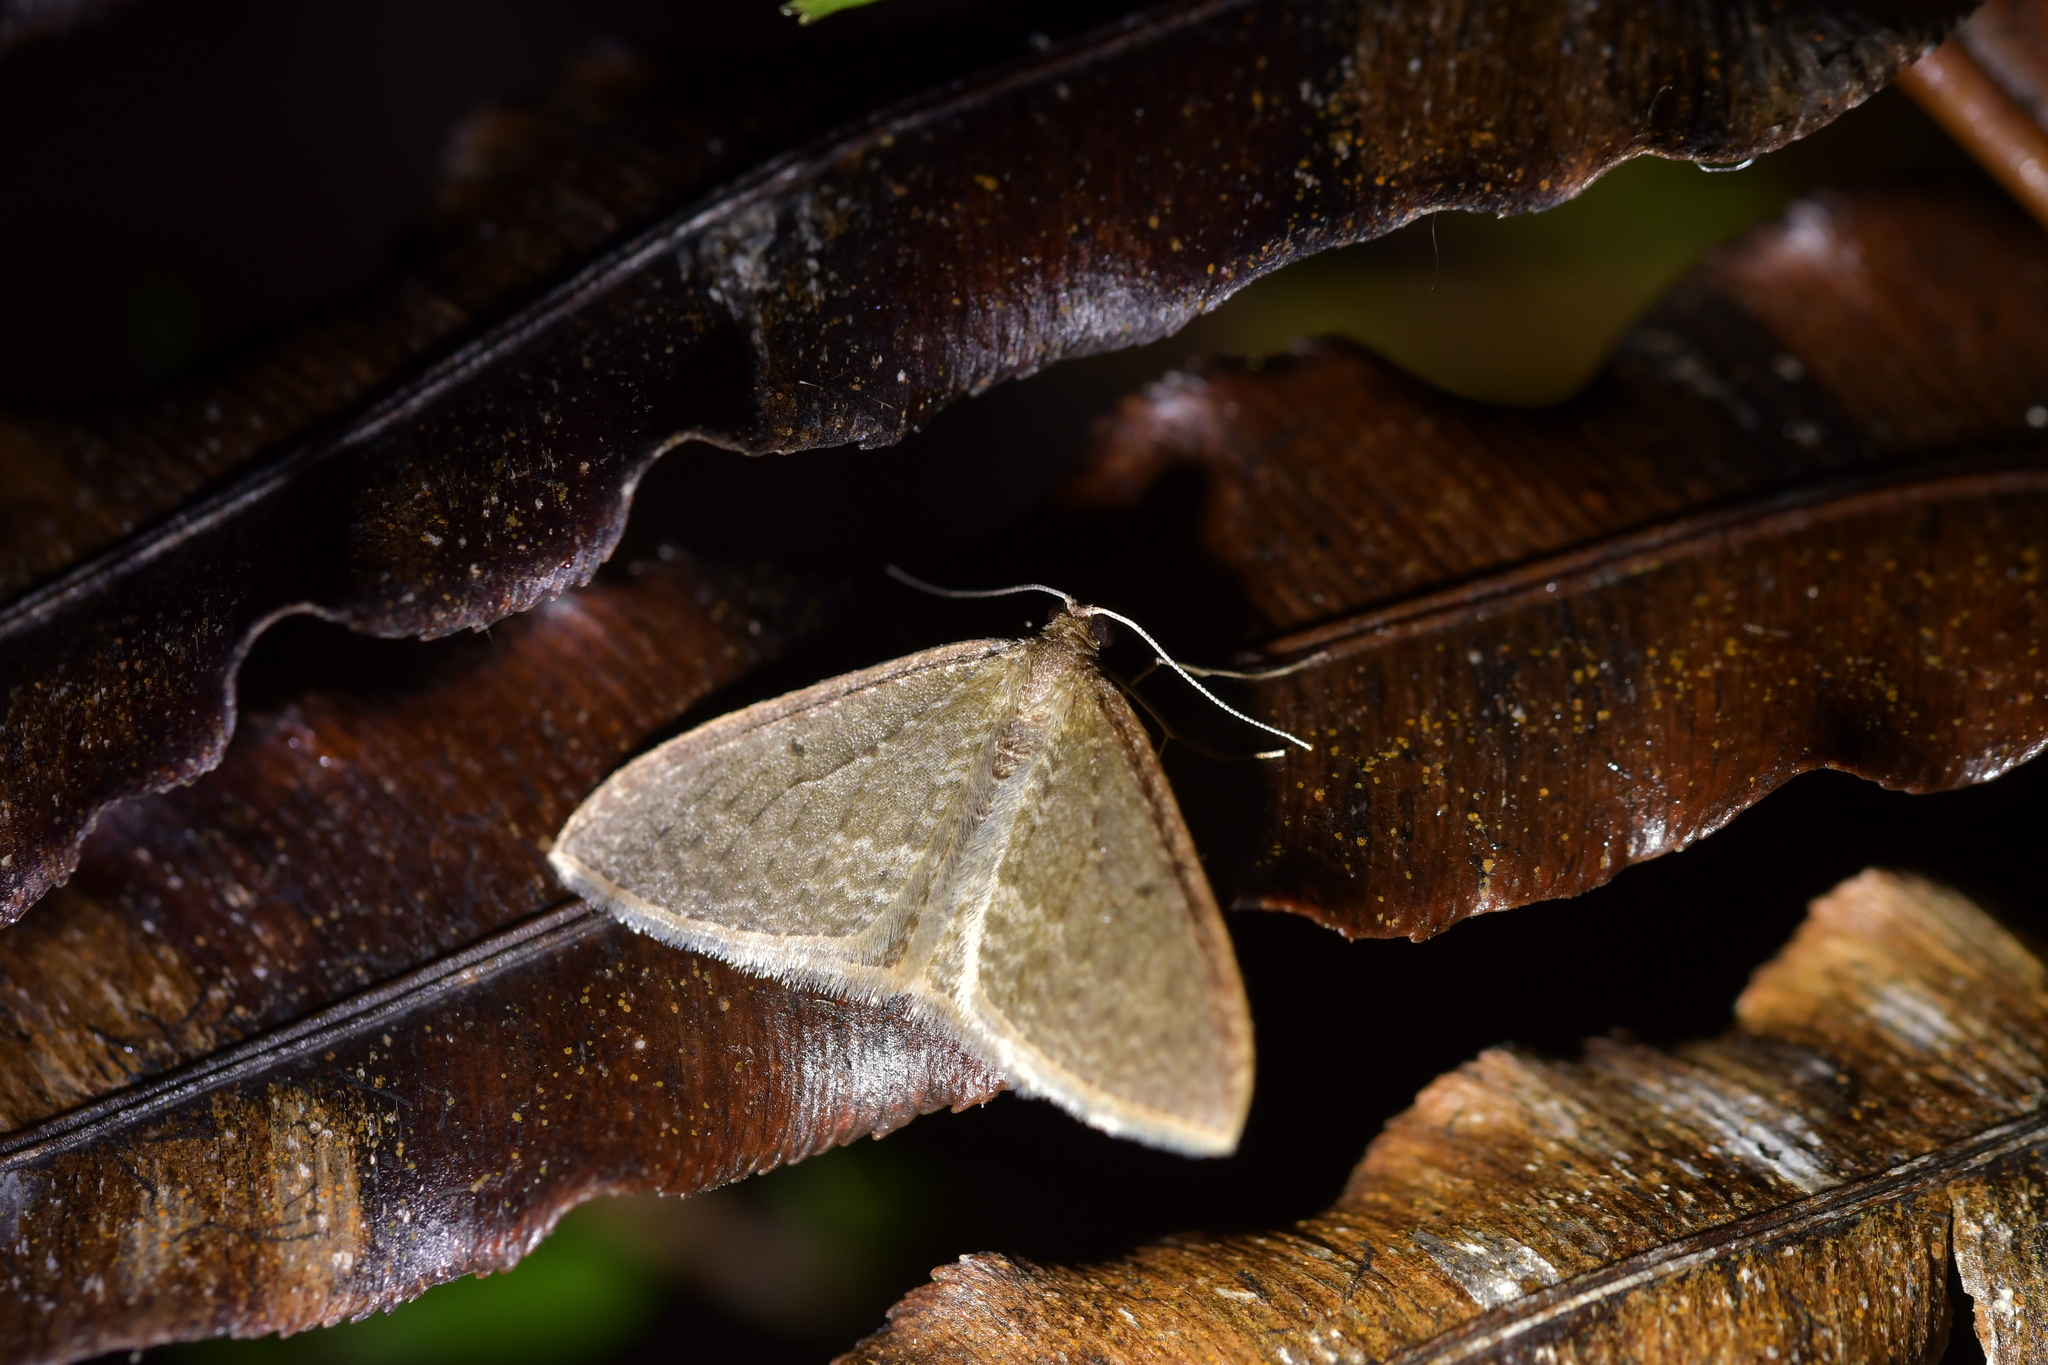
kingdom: Animalia
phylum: Arthropoda
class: Insecta
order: Lepidoptera
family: Geometridae
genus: Poecilasthena
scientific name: Poecilasthena pulchraria
